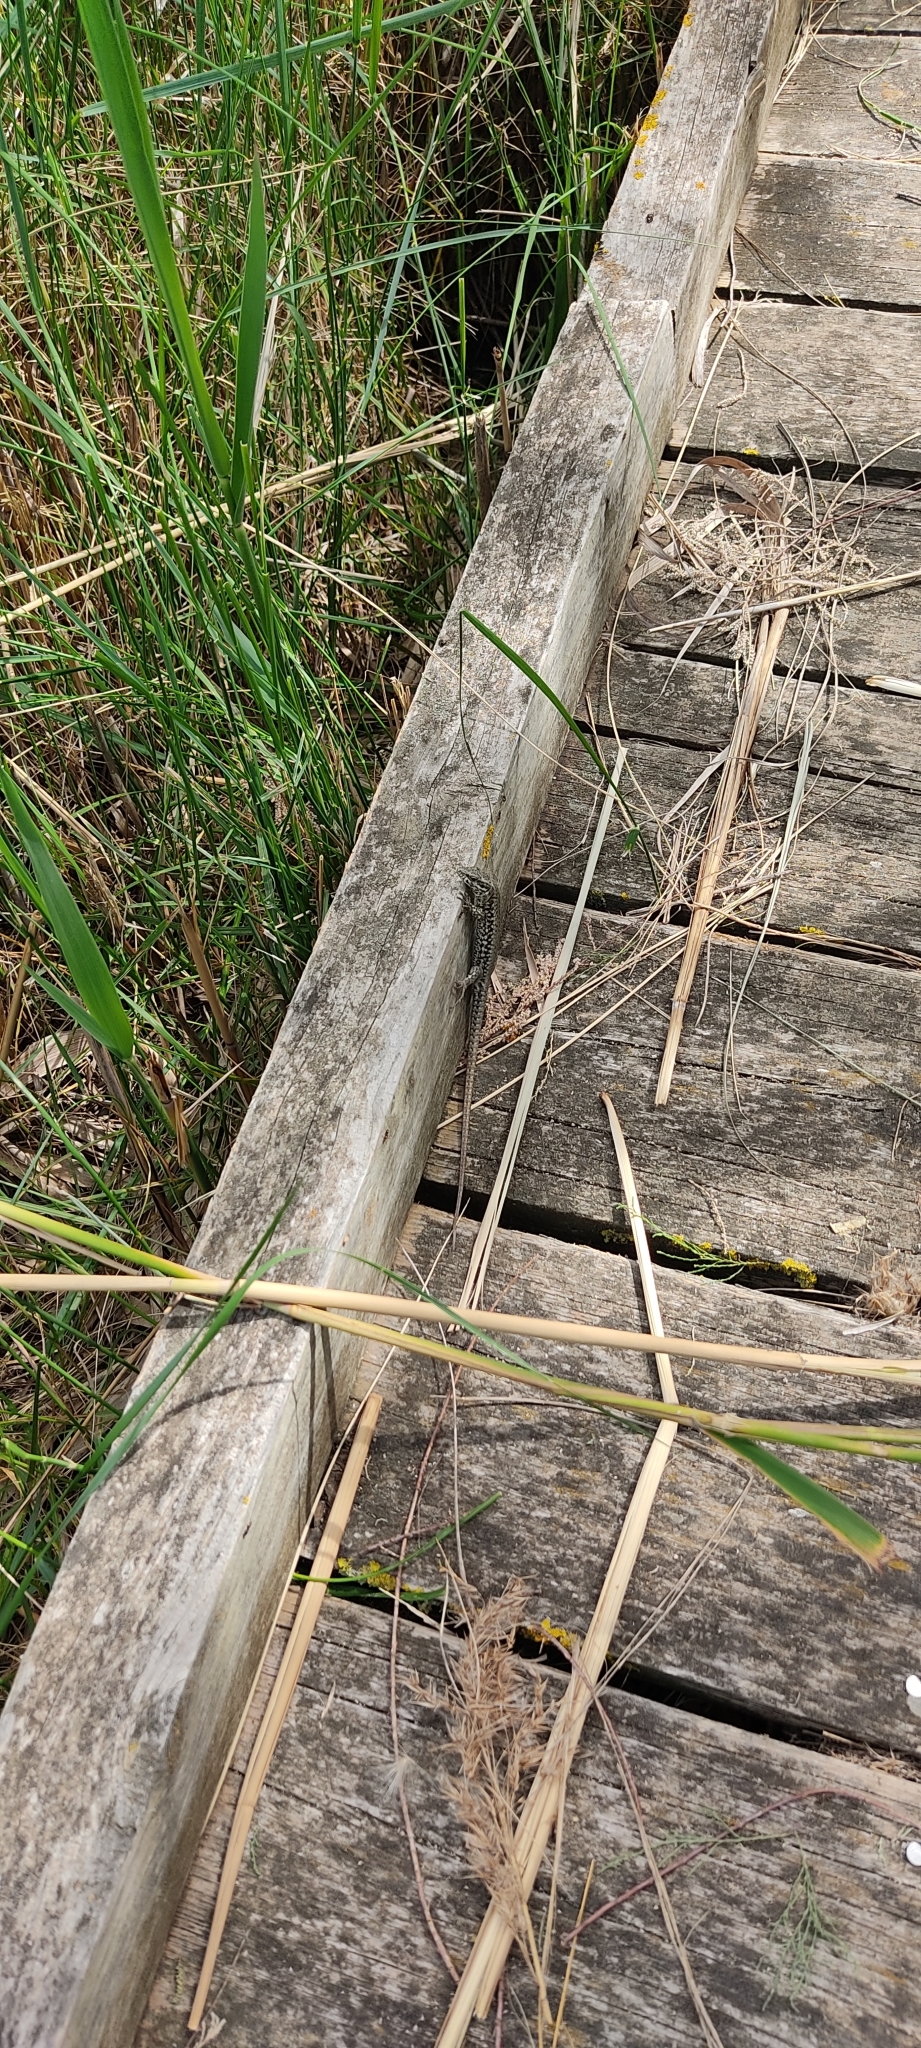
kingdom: Animalia
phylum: Chordata
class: Squamata
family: Lacertidae
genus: Podarcis
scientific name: Podarcis muralis
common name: Common wall lizard
